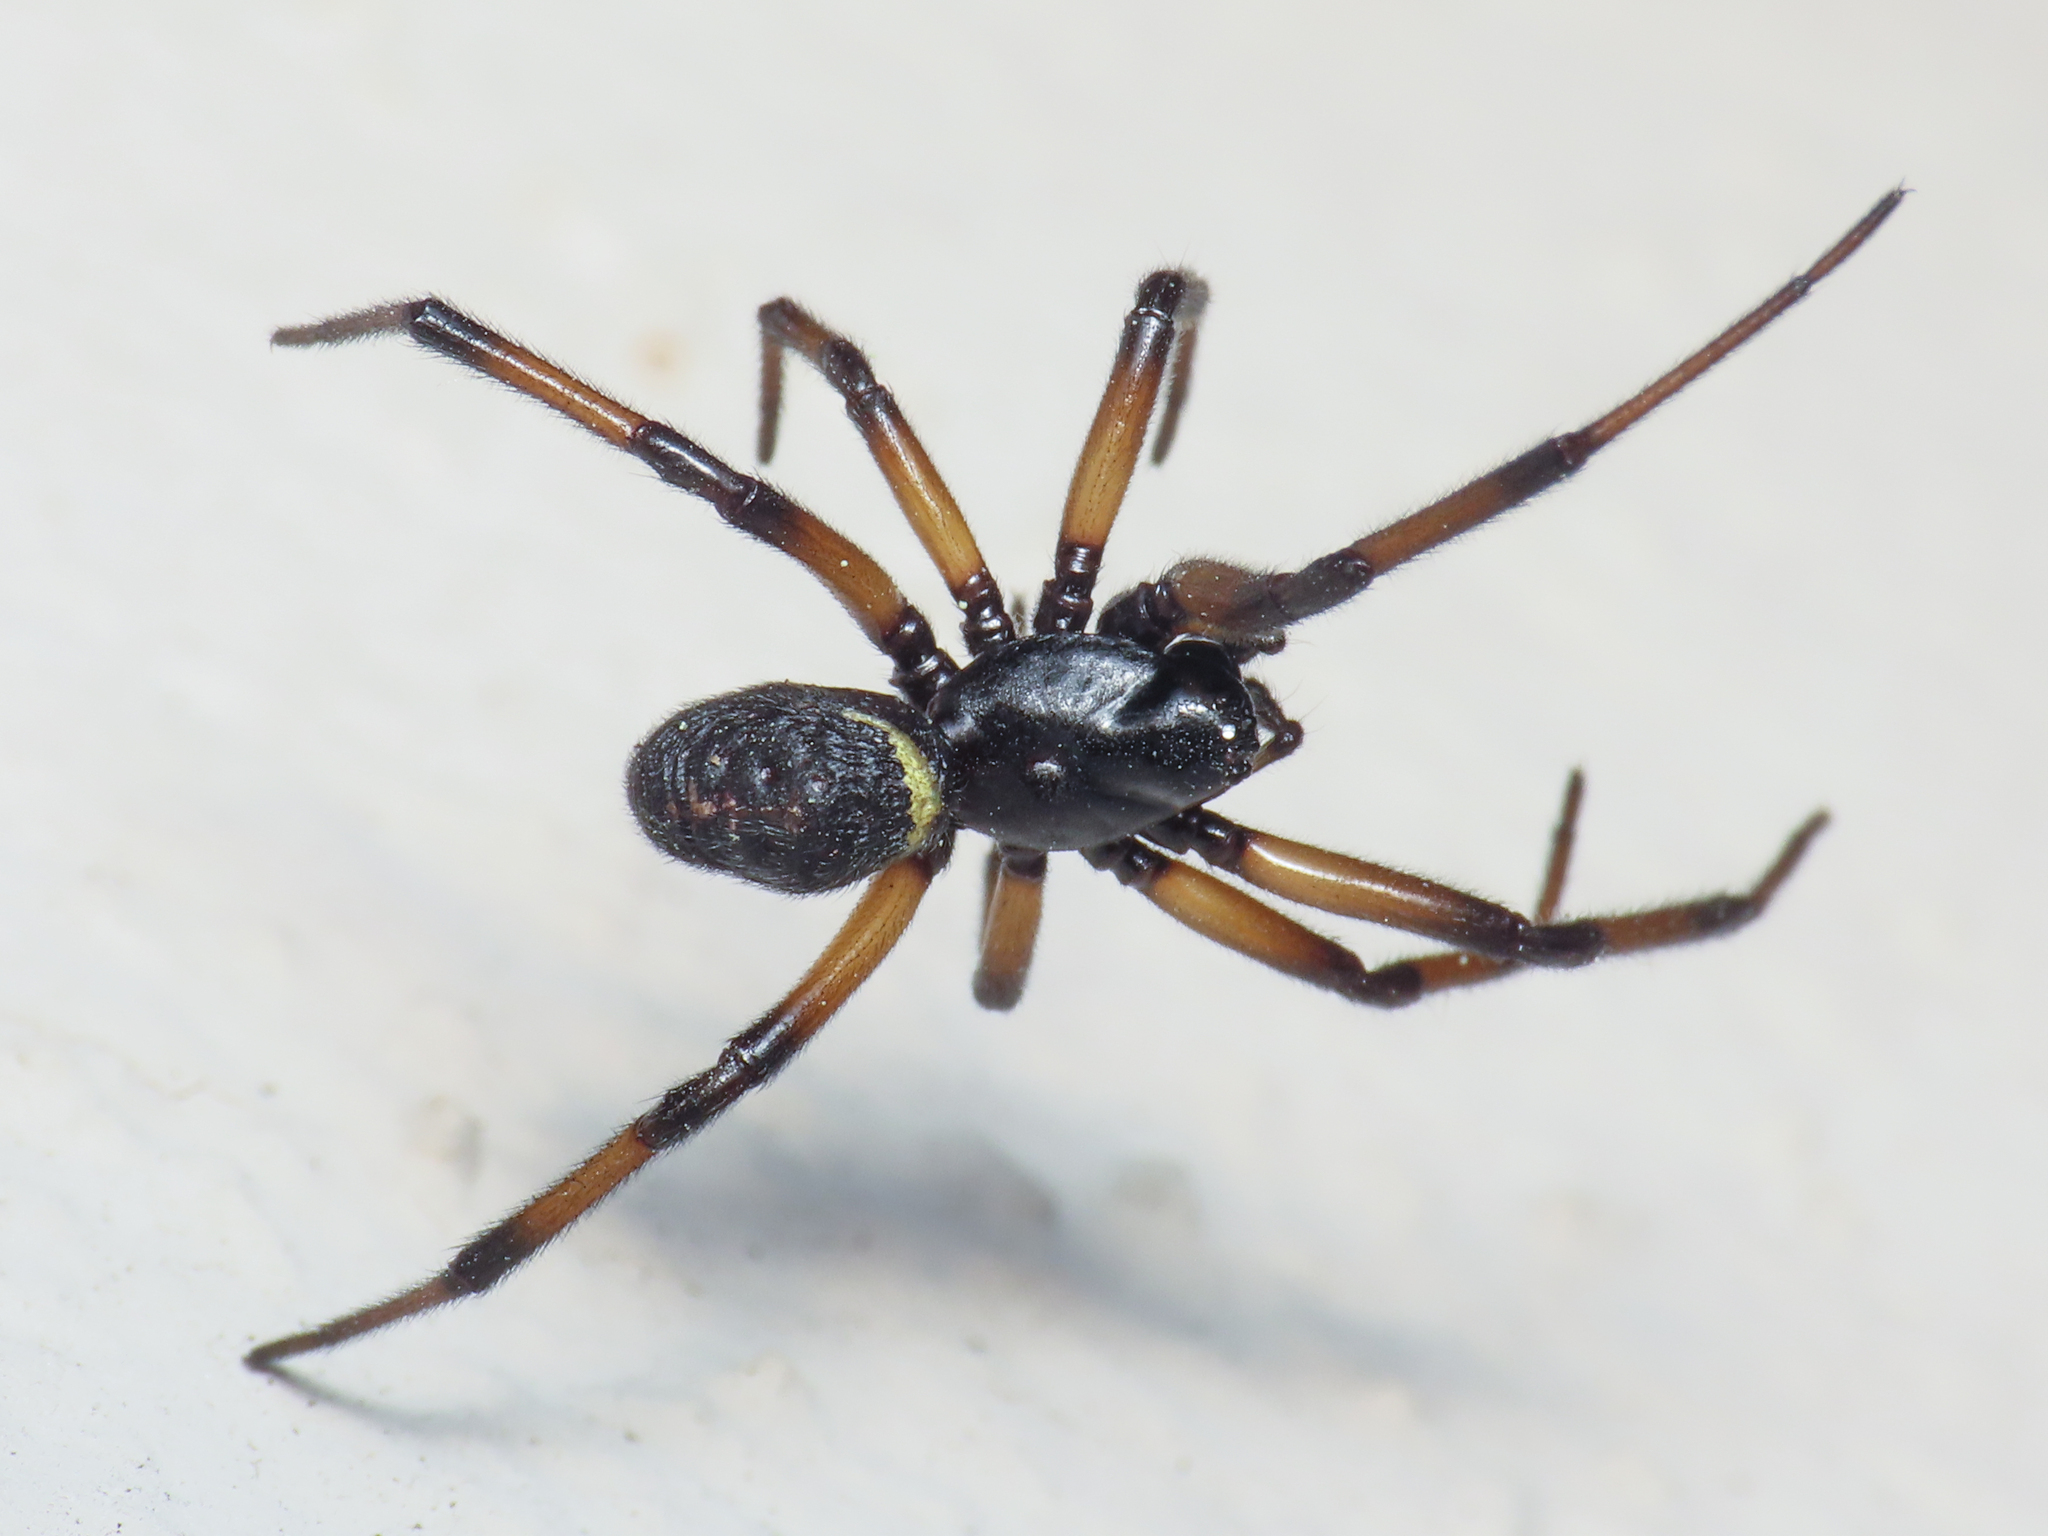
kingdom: Animalia
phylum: Arthropoda
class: Arachnida
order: Araneae
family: Theridiidae
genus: Steatoda
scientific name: Steatoda paykulliana
